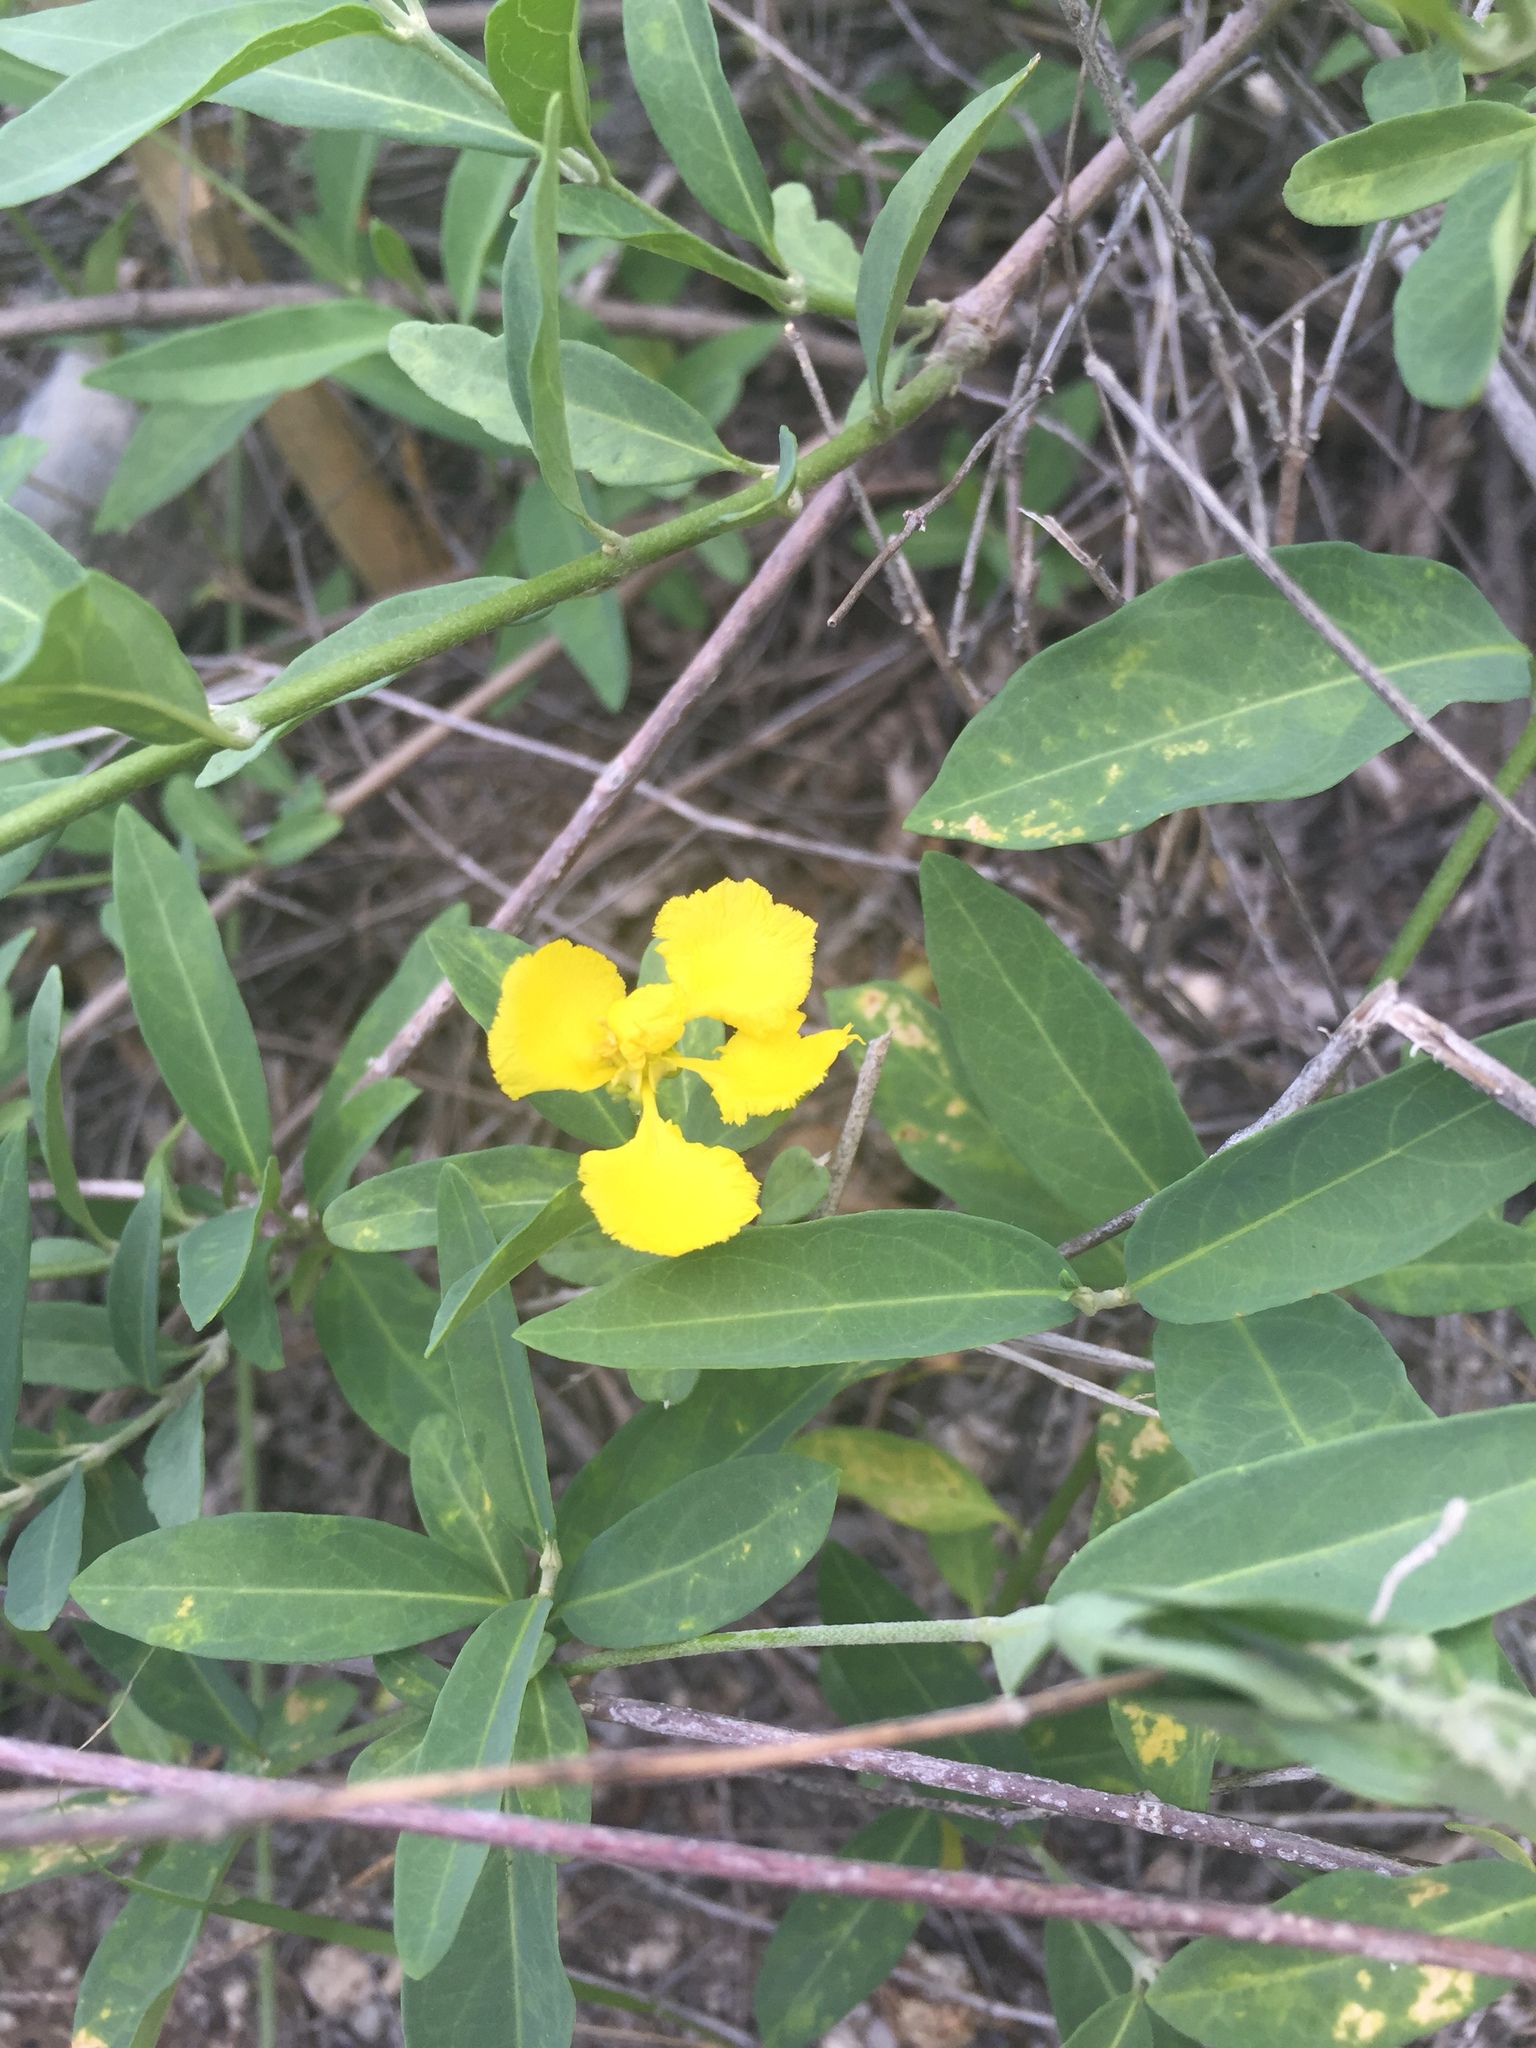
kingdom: Plantae
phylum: Tracheophyta
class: Magnoliopsida
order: Malpighiales
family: Malpighiaceae
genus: Callaeum
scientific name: Callaeum macropterum
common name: Mexican butterfly-vine
